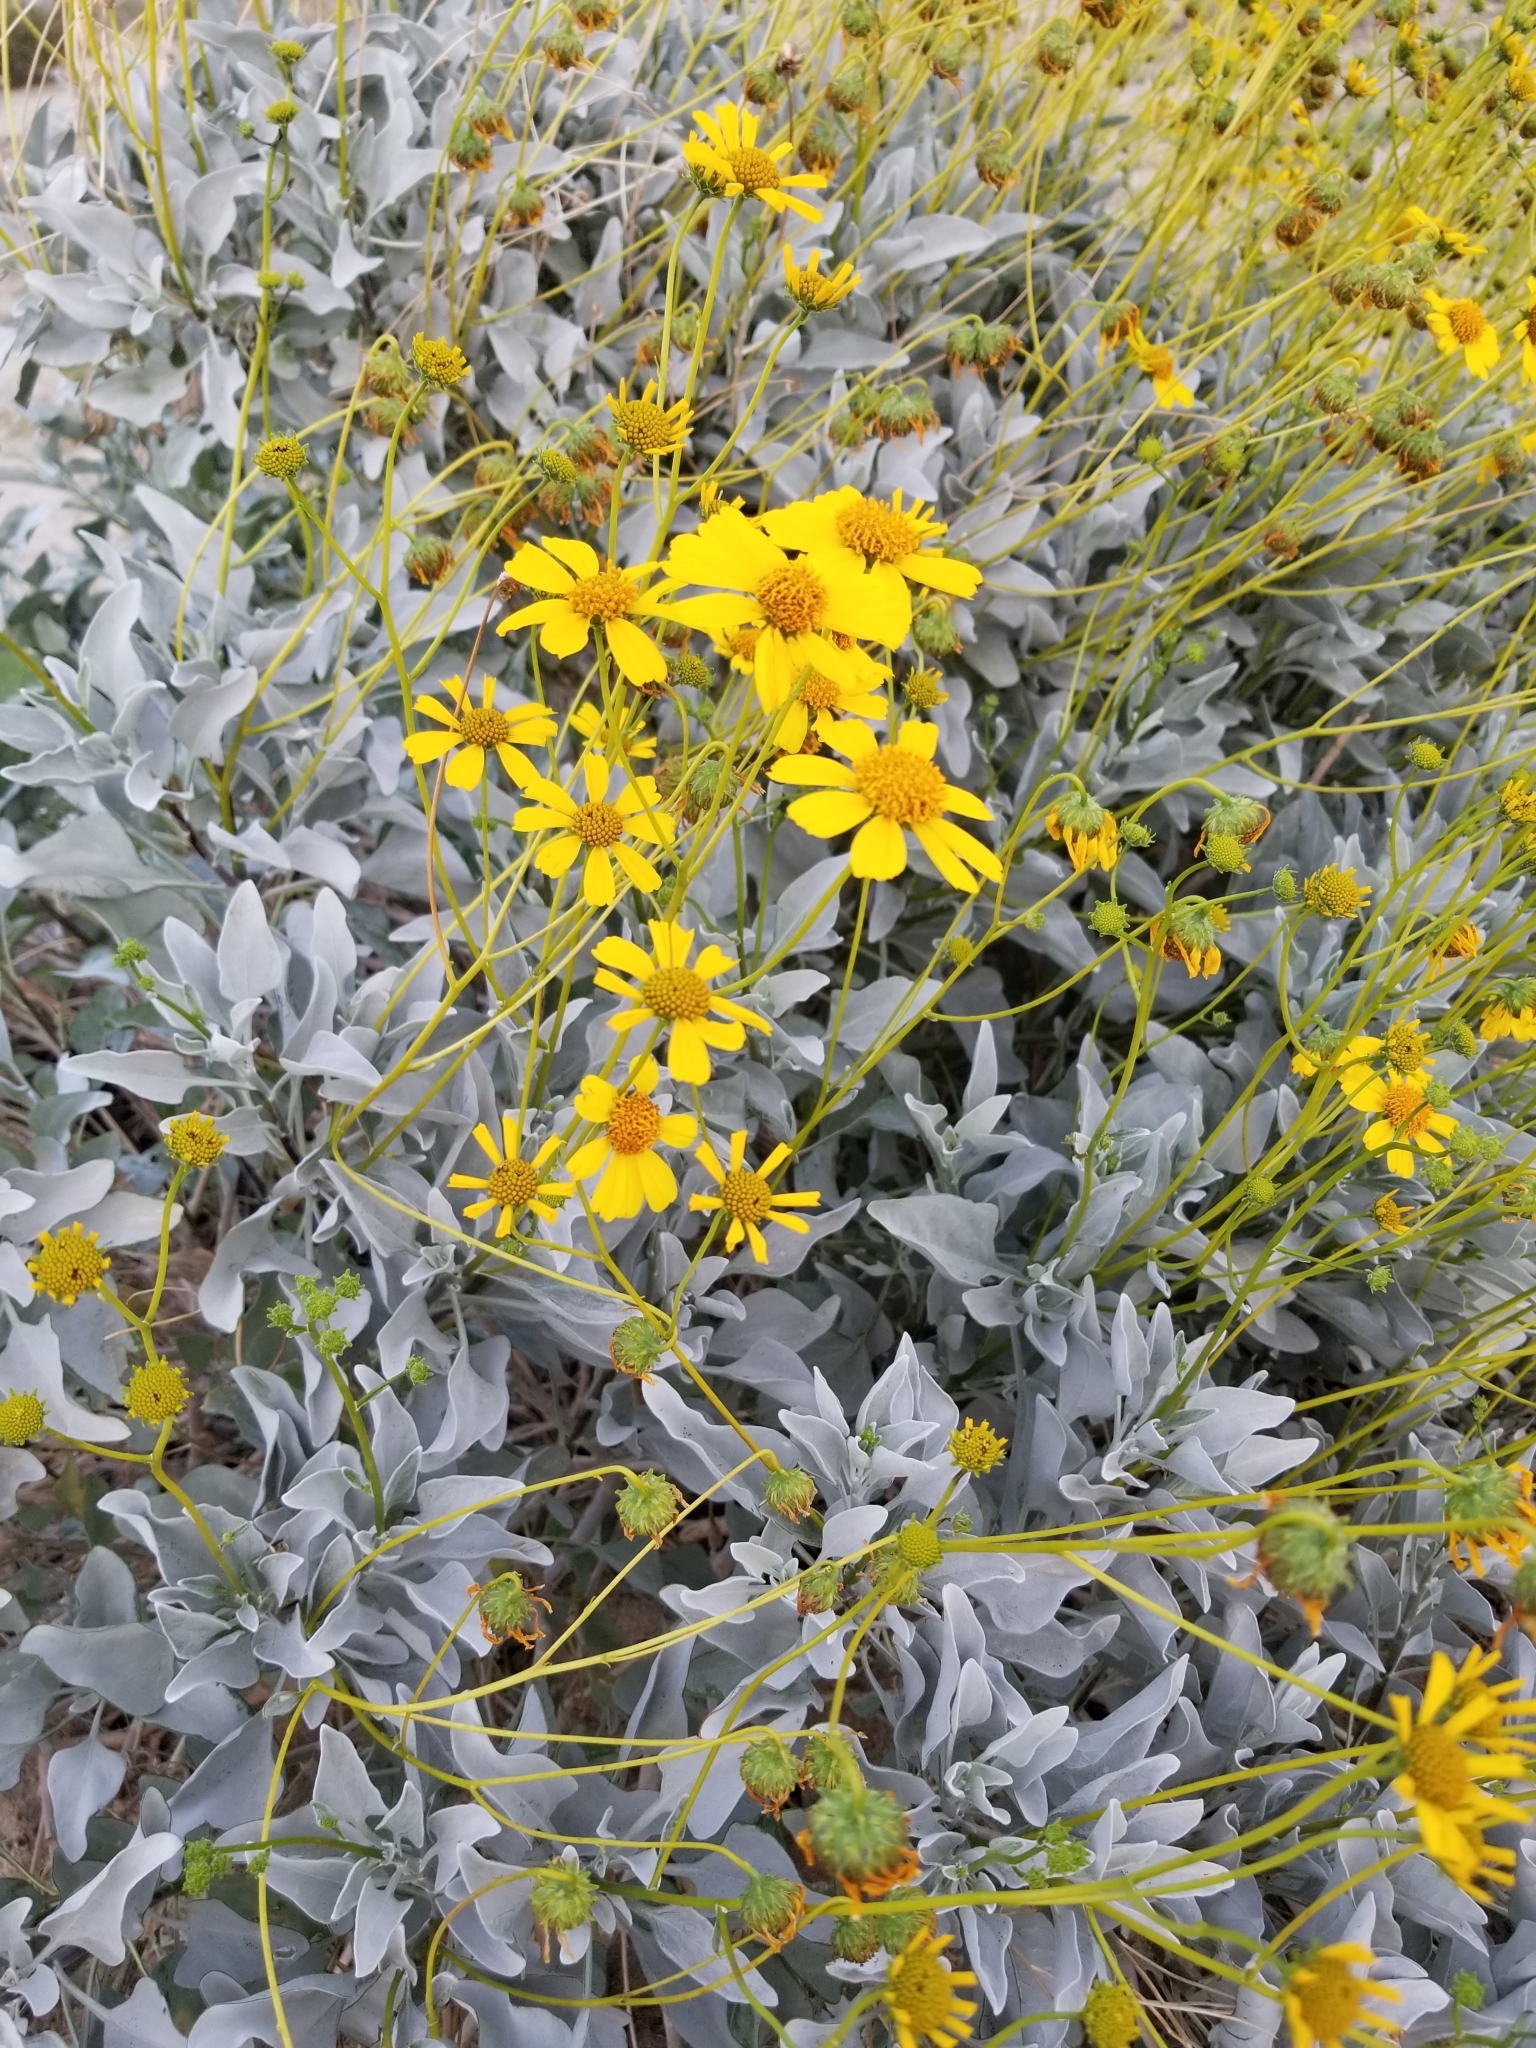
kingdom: Plantae
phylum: Tracheophyta
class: Magnoliopsida
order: Asterales
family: Asteraceae
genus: Encelia
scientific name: Encelia farinosa
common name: Brittlebush
